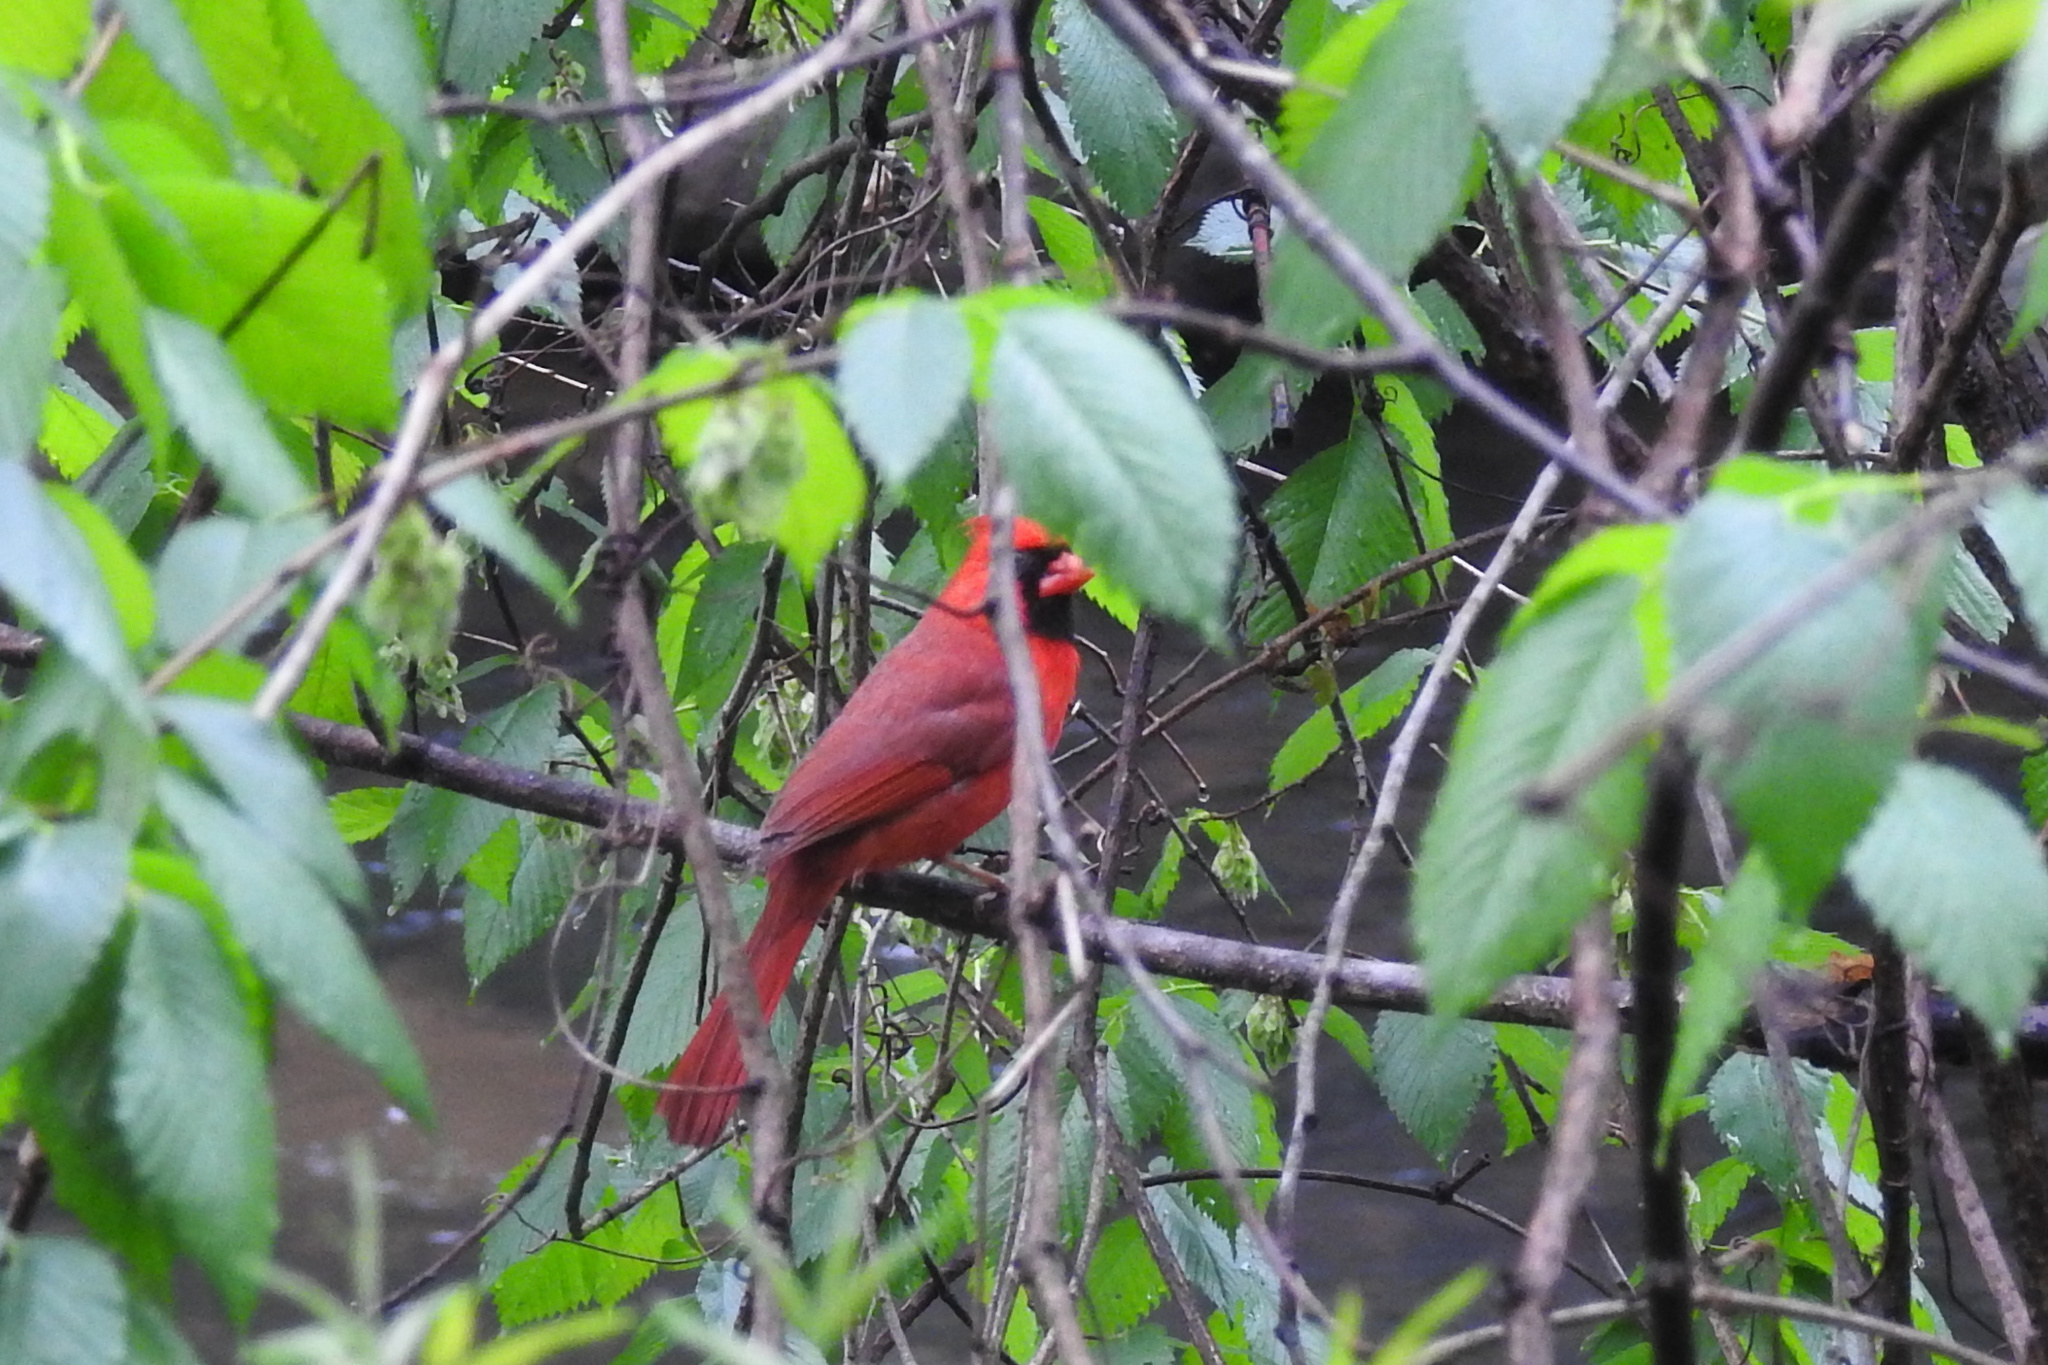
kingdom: Animalia
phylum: Chordata
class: Aves
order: Passeriformes
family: Cardinalidae
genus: Cardinalis
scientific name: Cardinalis cardinalis
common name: Northern cardinal
